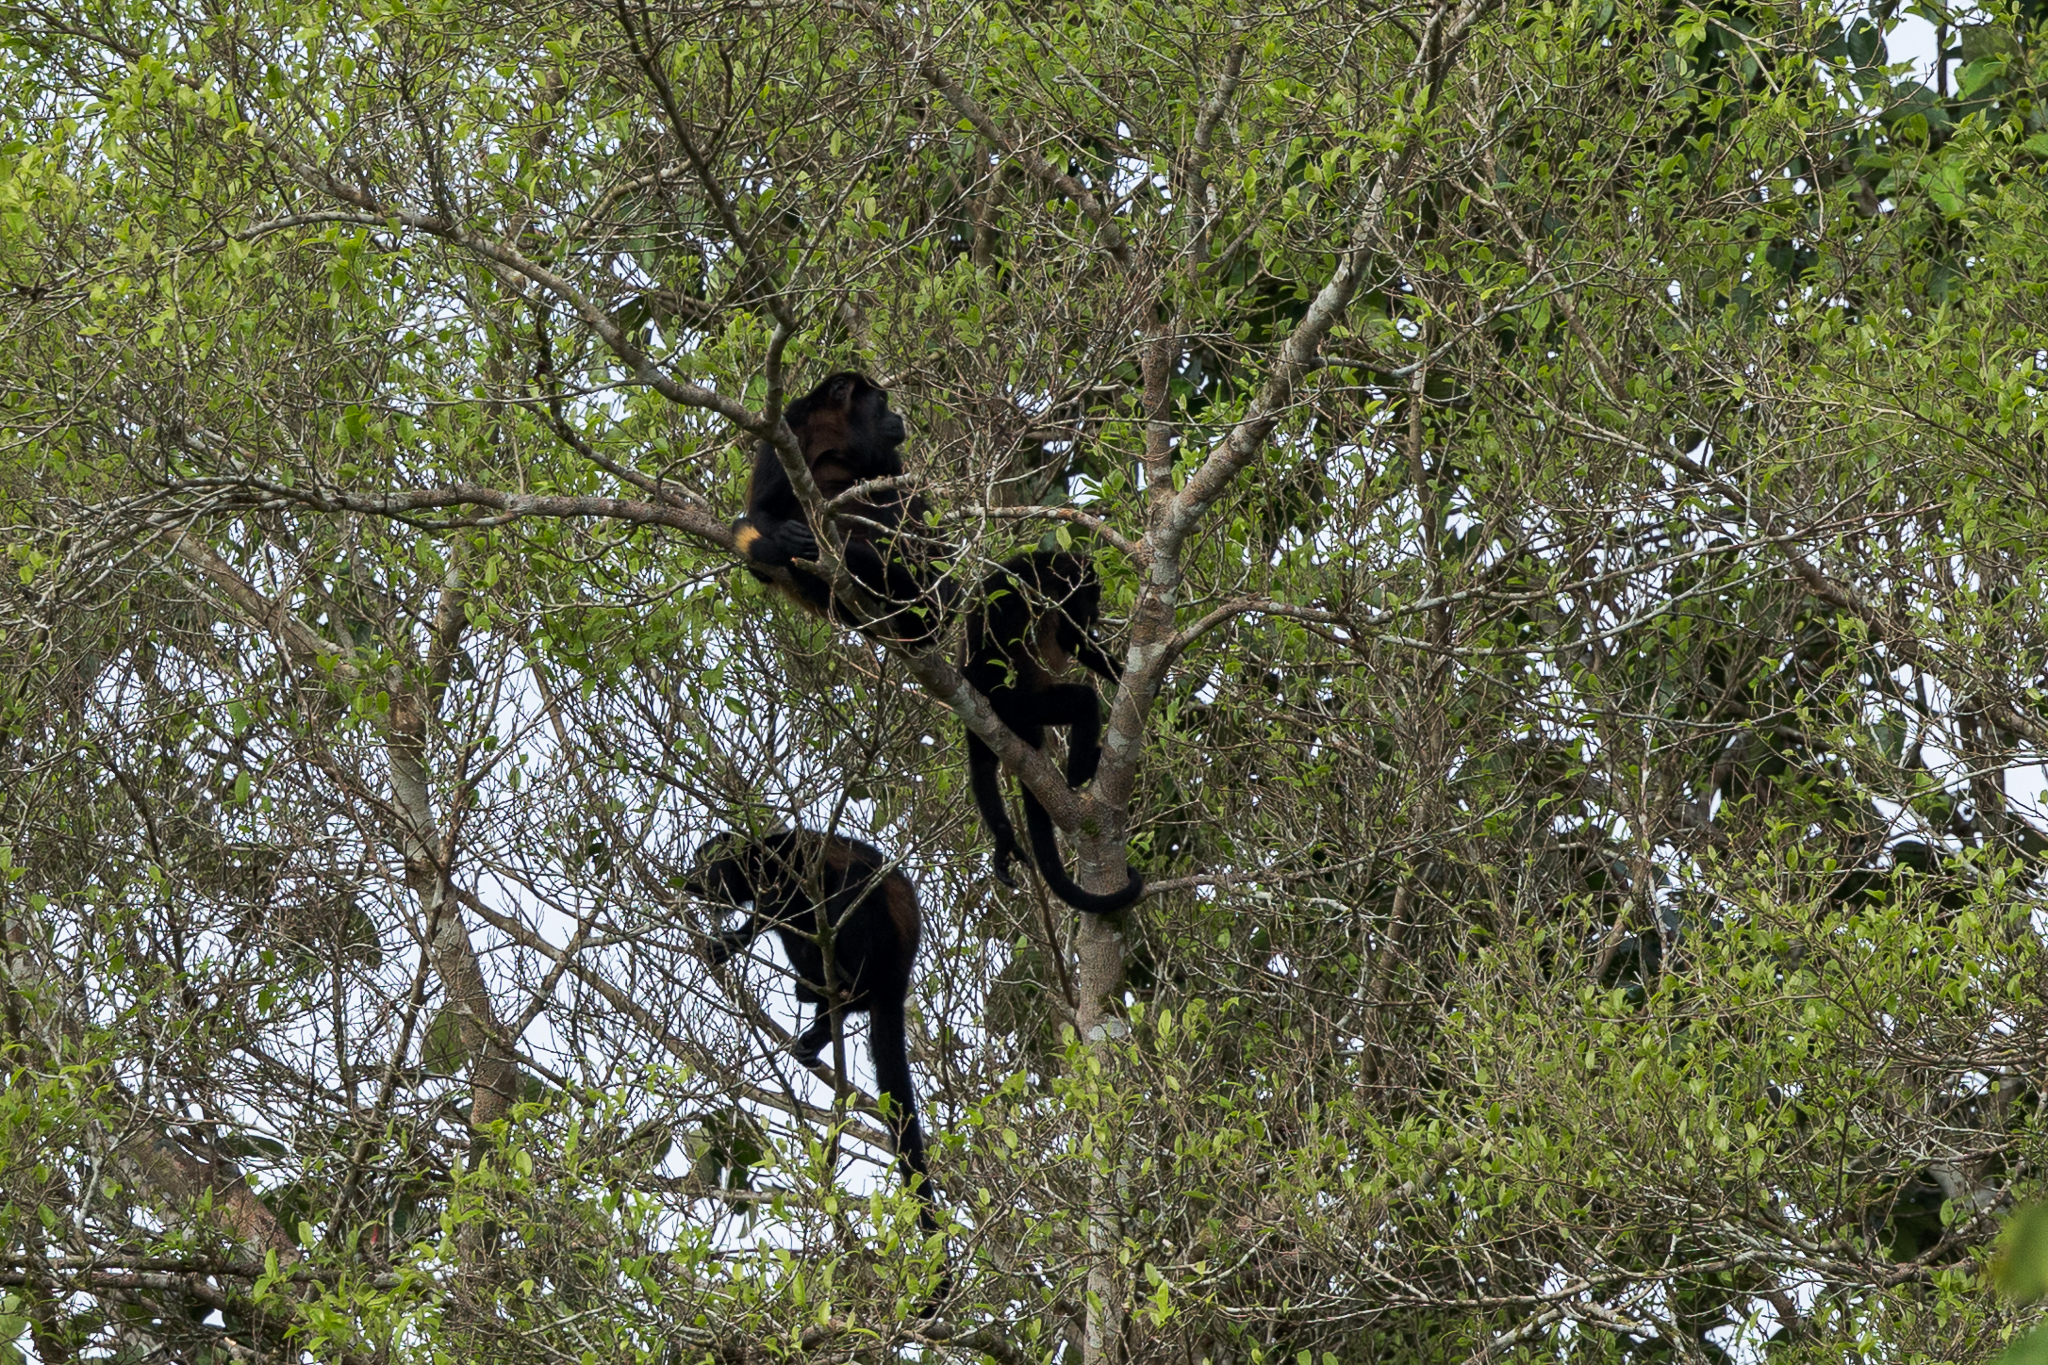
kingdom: Animalia
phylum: Chordata
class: Mammalia
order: Primates
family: Atelidae
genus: Alouatta
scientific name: Alouatta palliata
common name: Mantled howler
